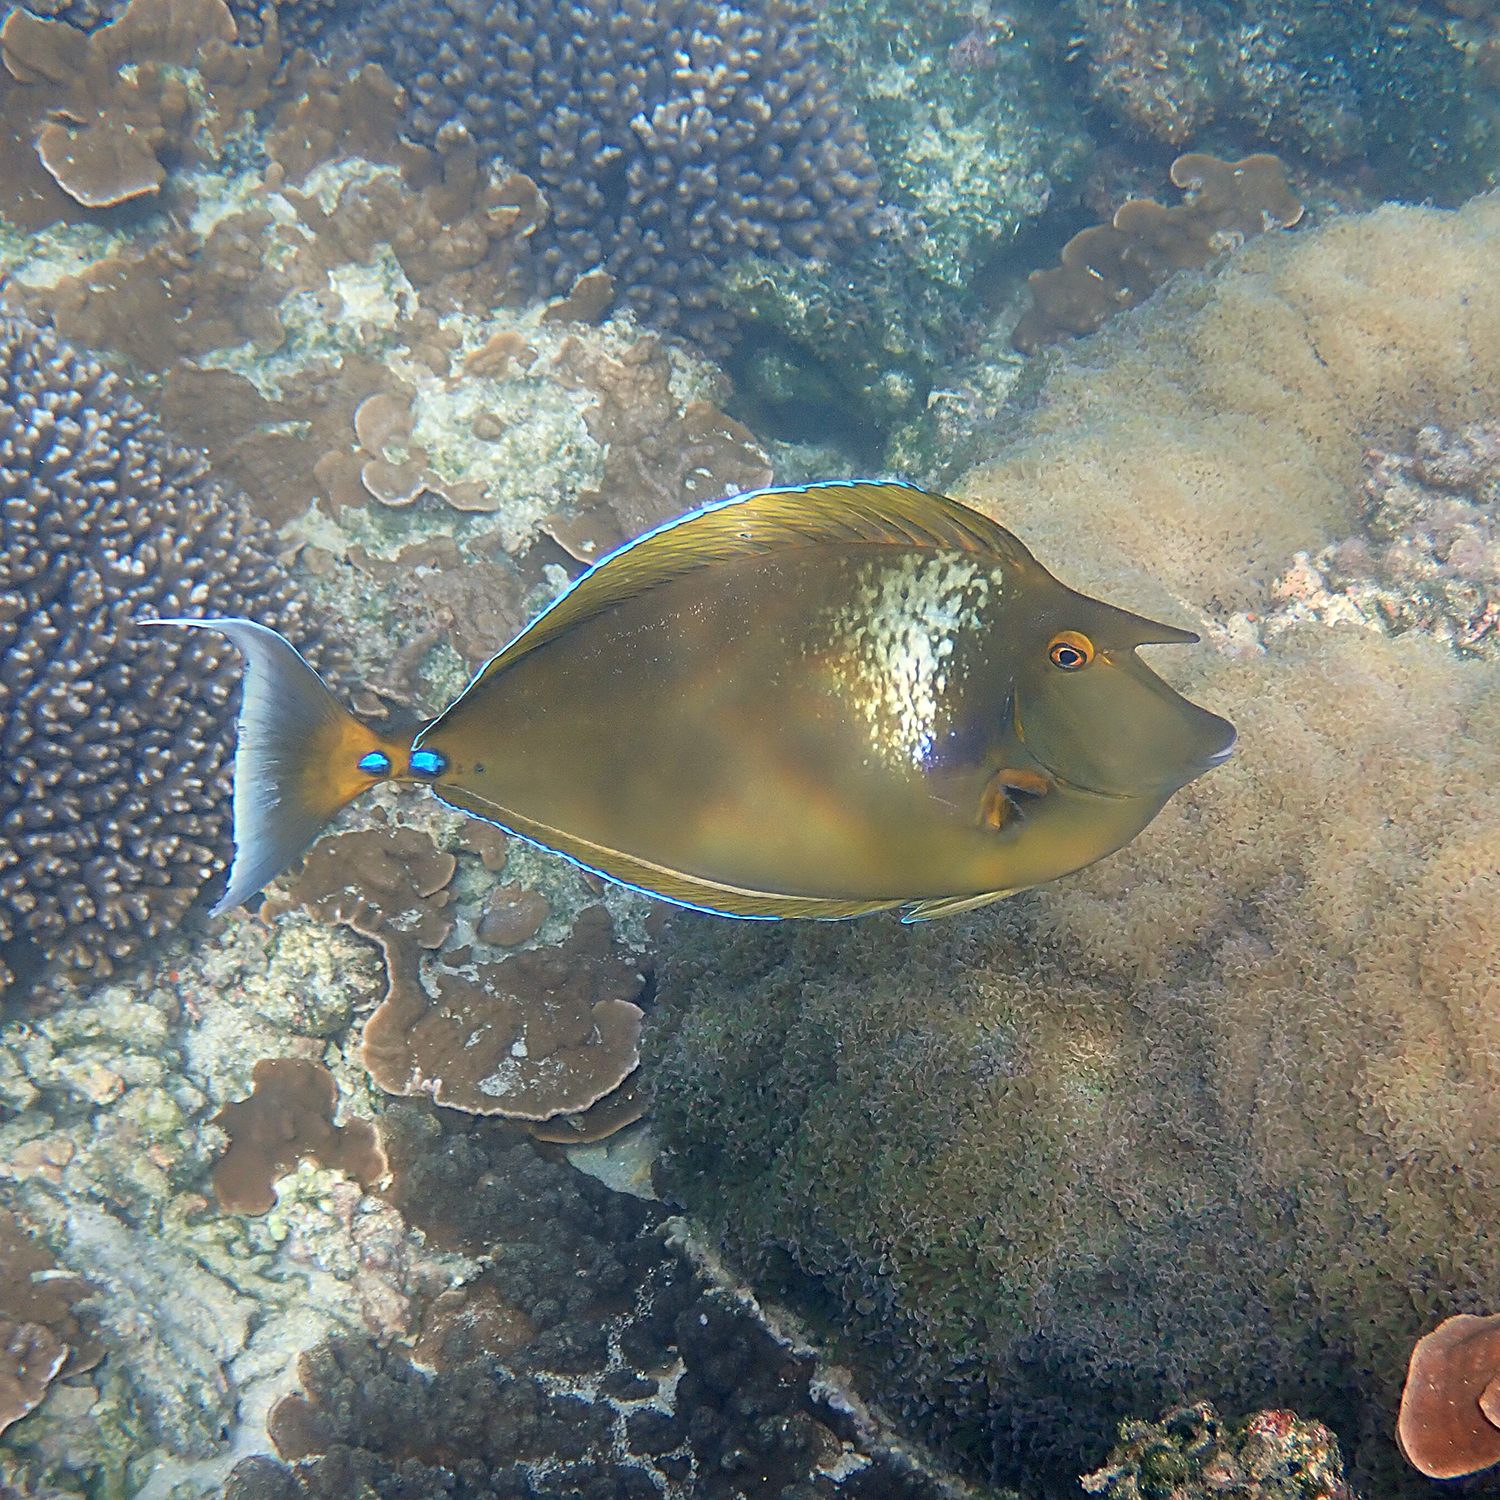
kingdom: Animalia
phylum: Chordata
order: Perciformes
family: Acanthuridae
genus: Naso
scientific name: Naso unicornis
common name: Bluespine unicornfish
